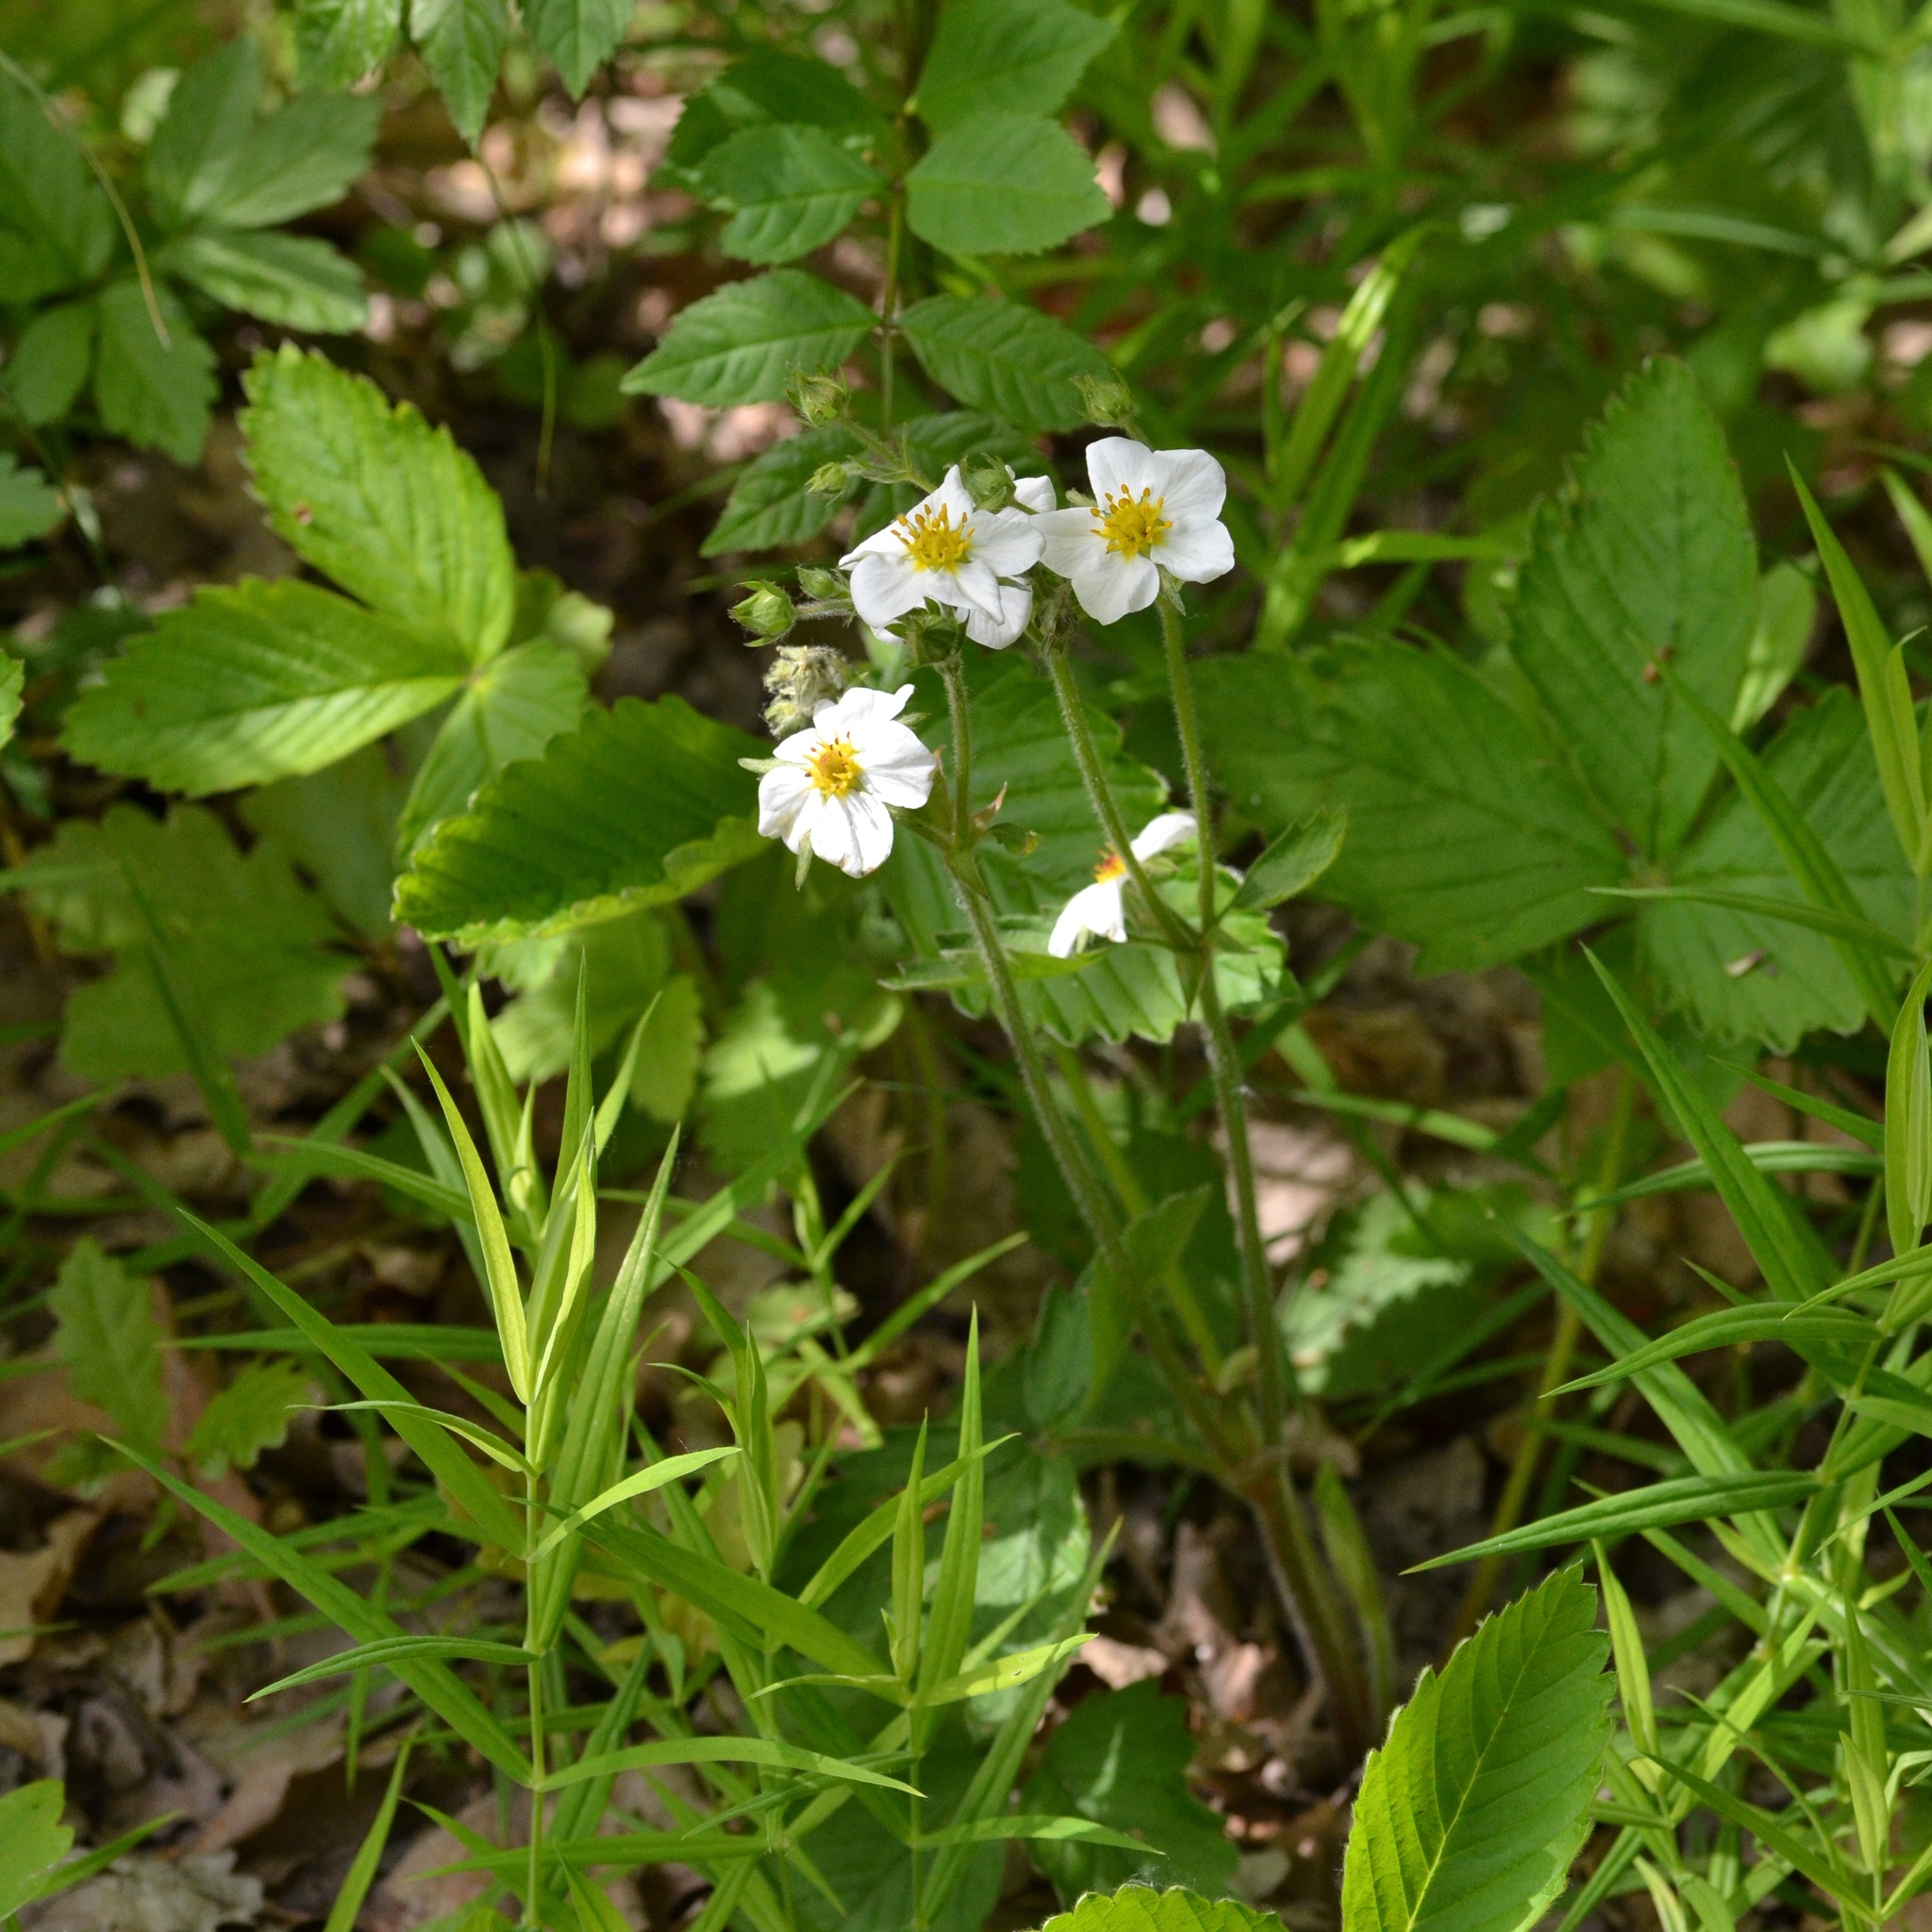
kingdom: Plantae
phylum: Tracheophyta
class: Magnoliopsida
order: Rosales
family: Rosaceae
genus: Fragaria
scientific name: Fragaria moschata
